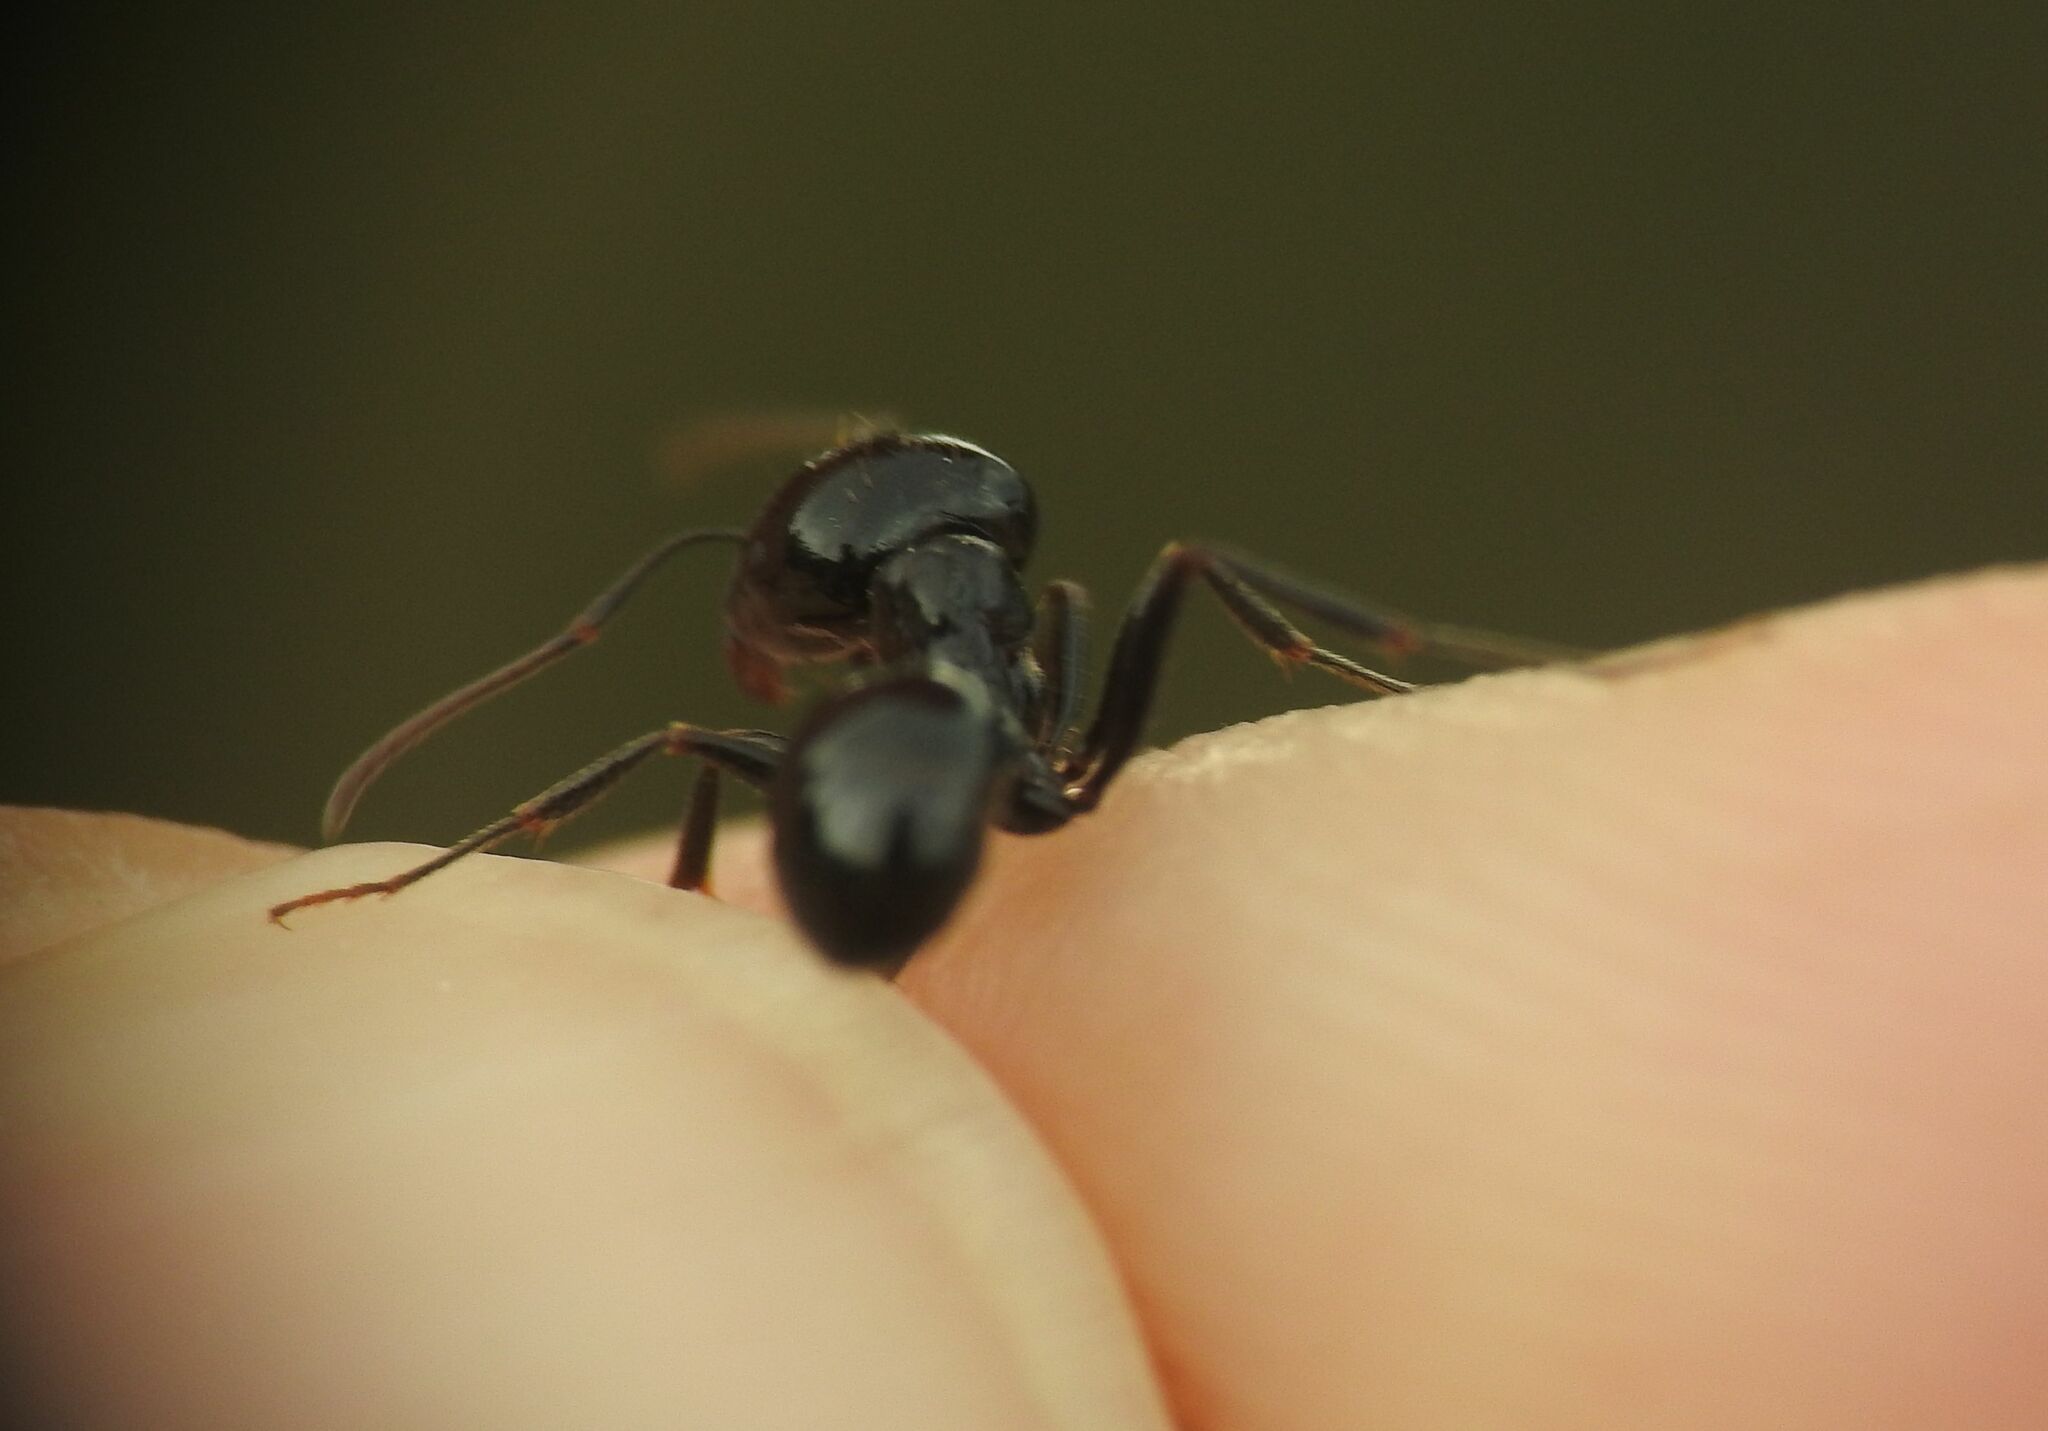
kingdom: Animalia
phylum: Arthropoda
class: Insecta
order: Hymenoptera
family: Formicidae
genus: Messor
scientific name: Messor bouvieri
